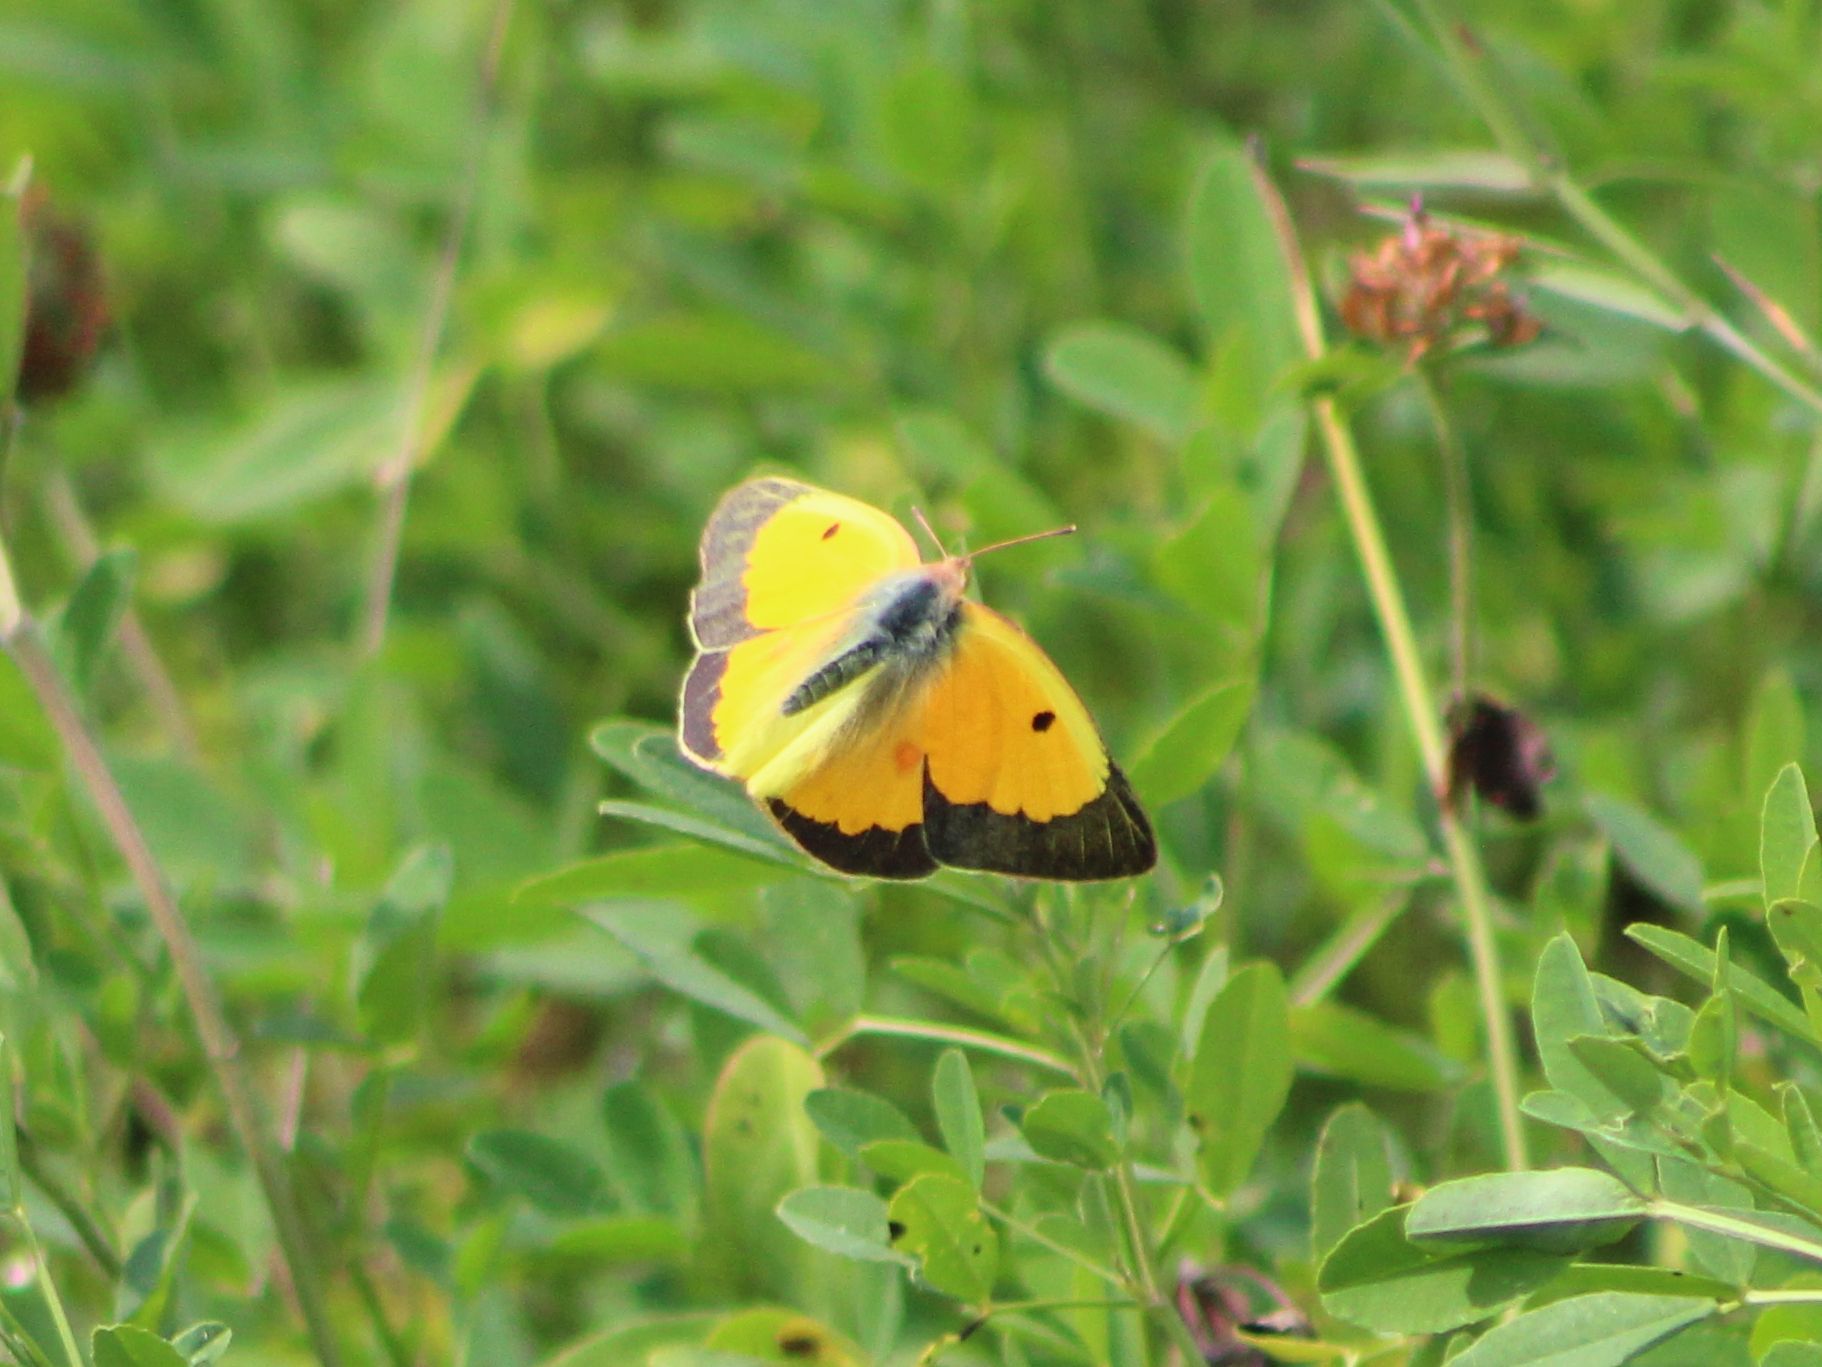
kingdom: Animalia
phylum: Arthropoda
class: Insecta
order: Lepidoptera
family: Pieridae
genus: Colias
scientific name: Colias eurytheme
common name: Alfalfa butterfly
